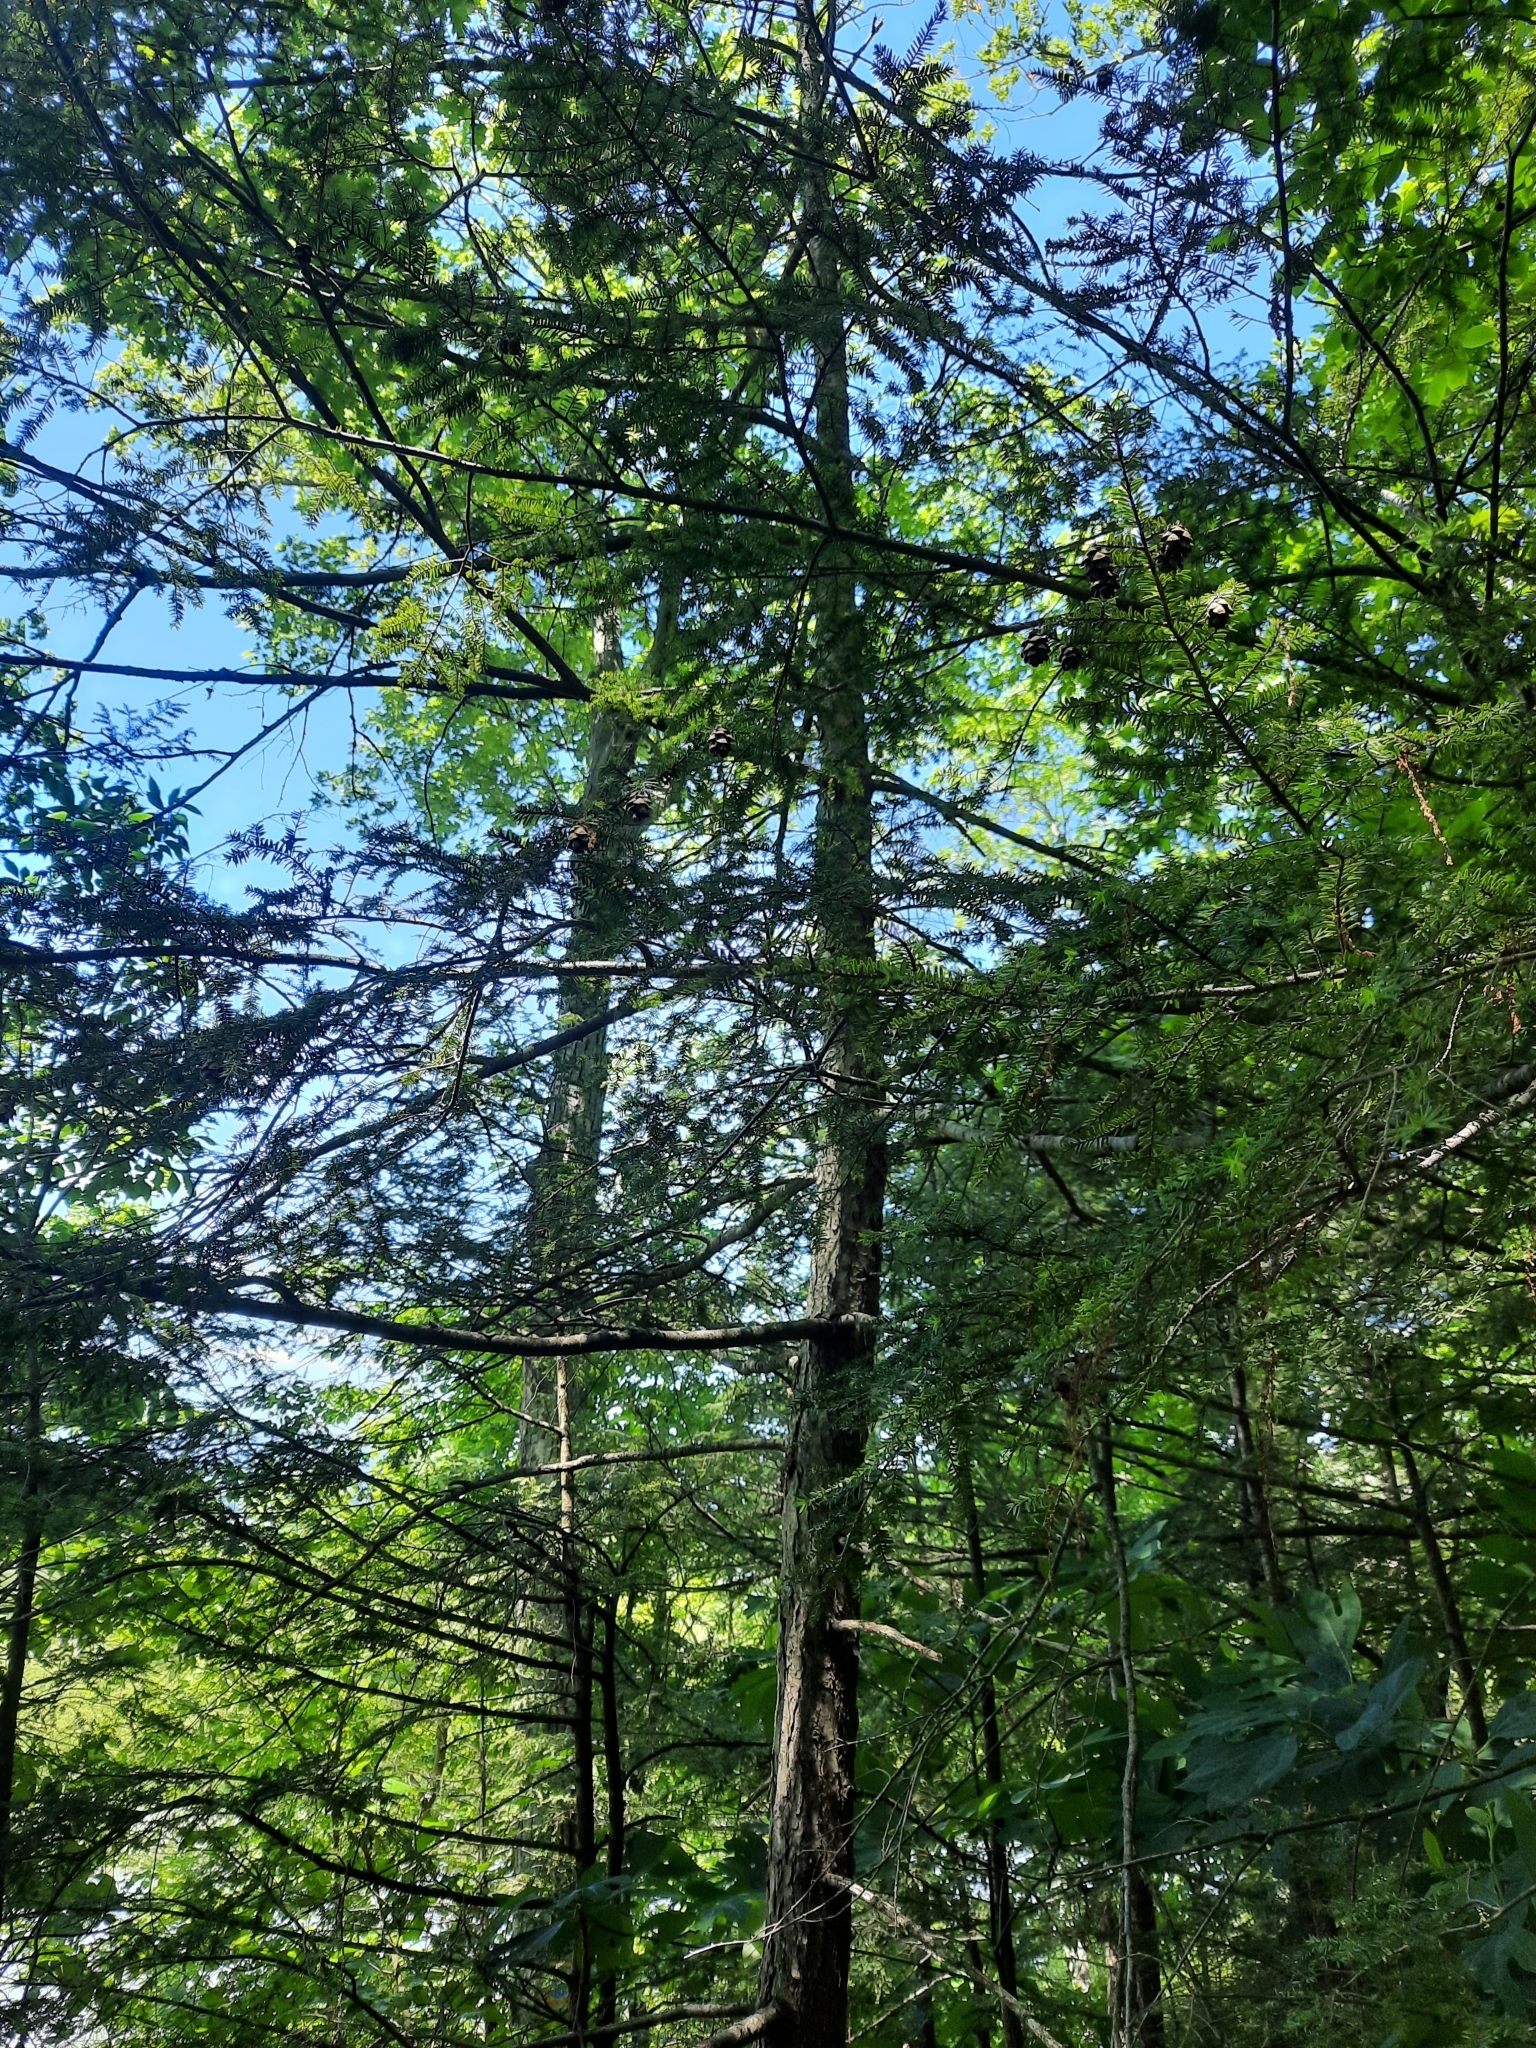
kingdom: Plantae
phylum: Tracheophyta
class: Pinopsida
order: Pinales
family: Pinaceae
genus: Tsuga
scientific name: Tsuga canadensis
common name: Eastern hemlock
